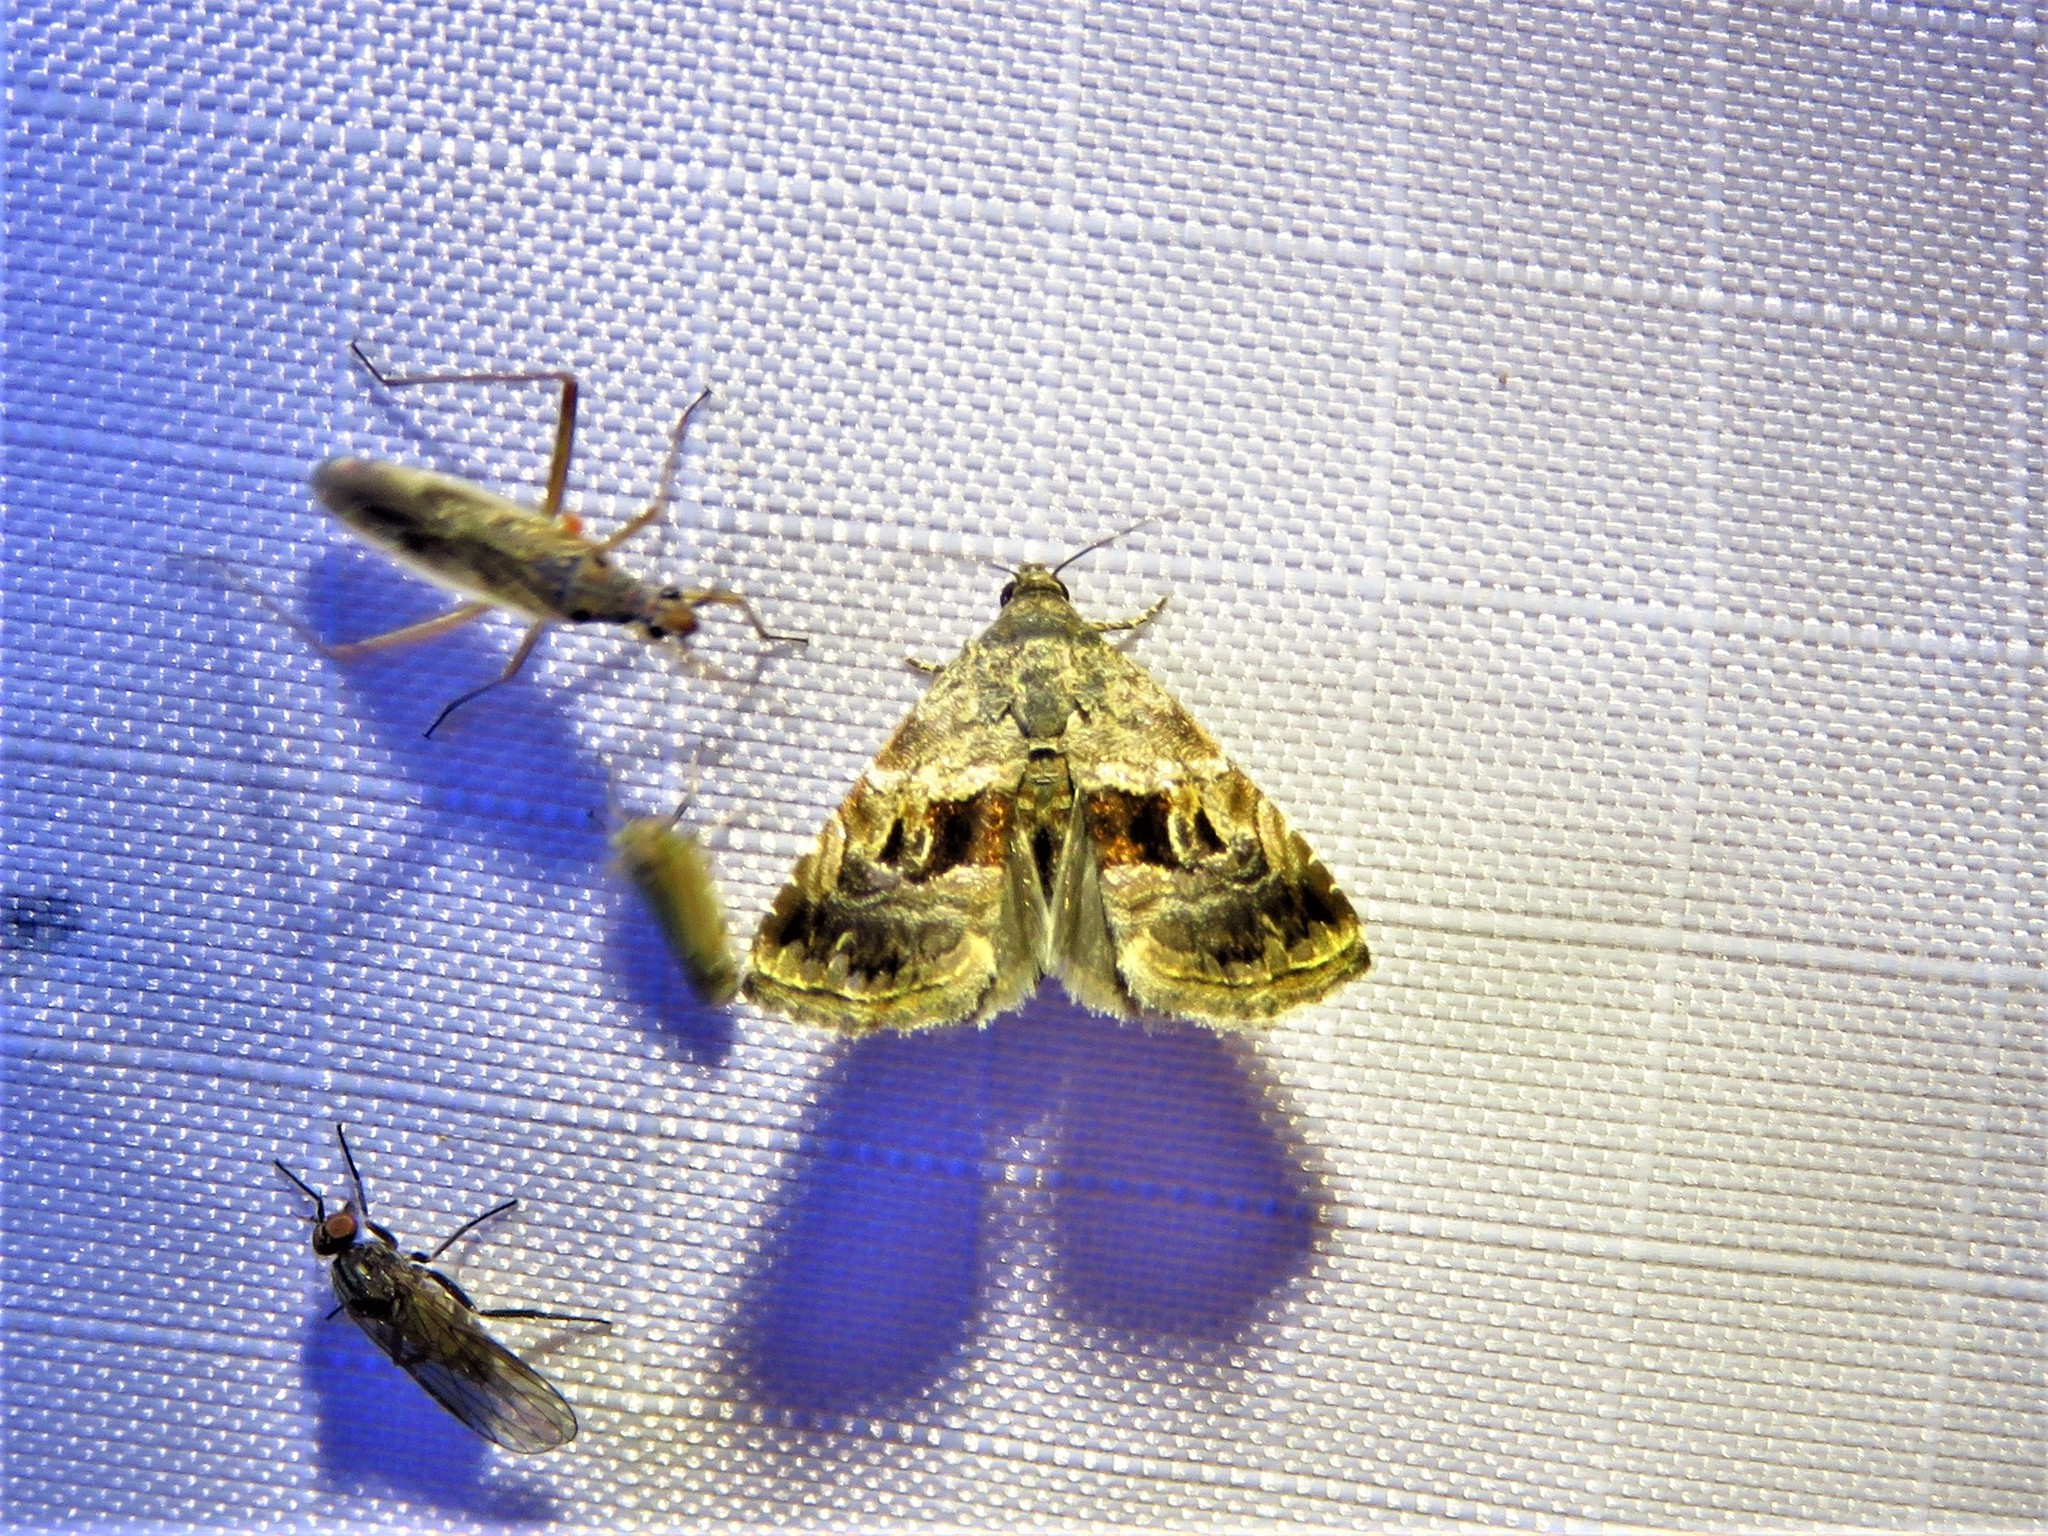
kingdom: Animalia
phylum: Arthropoda
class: Insecta
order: Lepidoptera
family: Noctuidae
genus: Tripudia
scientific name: Tripudia quadrifera
